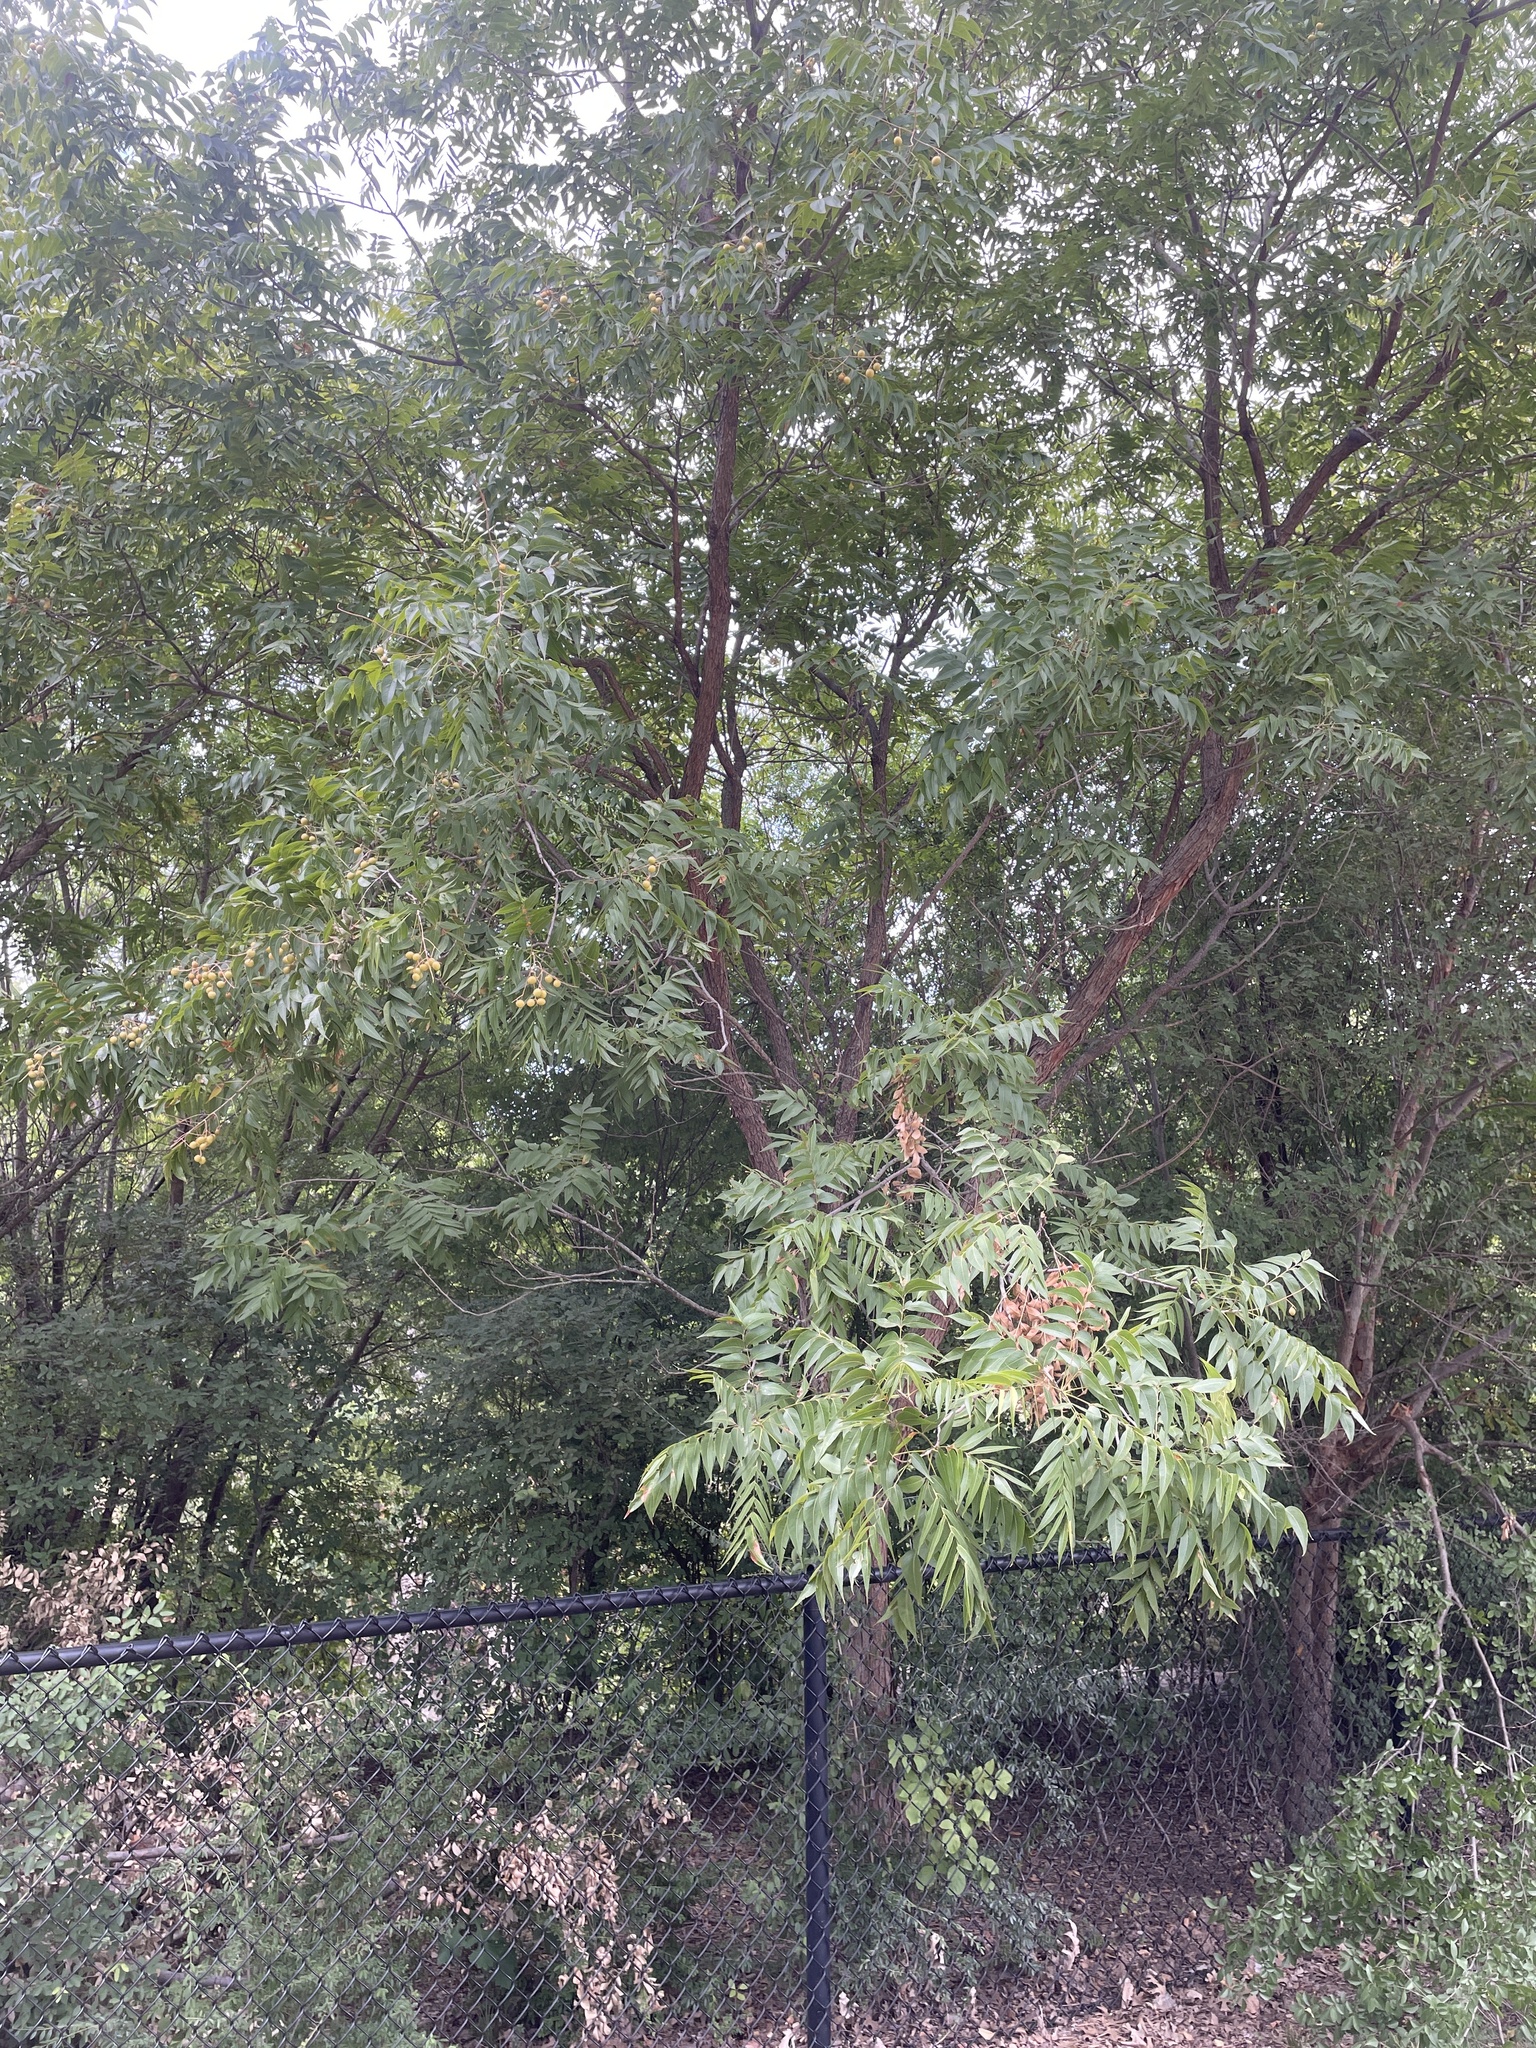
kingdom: Plantae
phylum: Tracheophyta
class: Magnoliopsida
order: Sapindales
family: Sapindaceae
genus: Sapindus
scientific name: Sapindus drummondii
